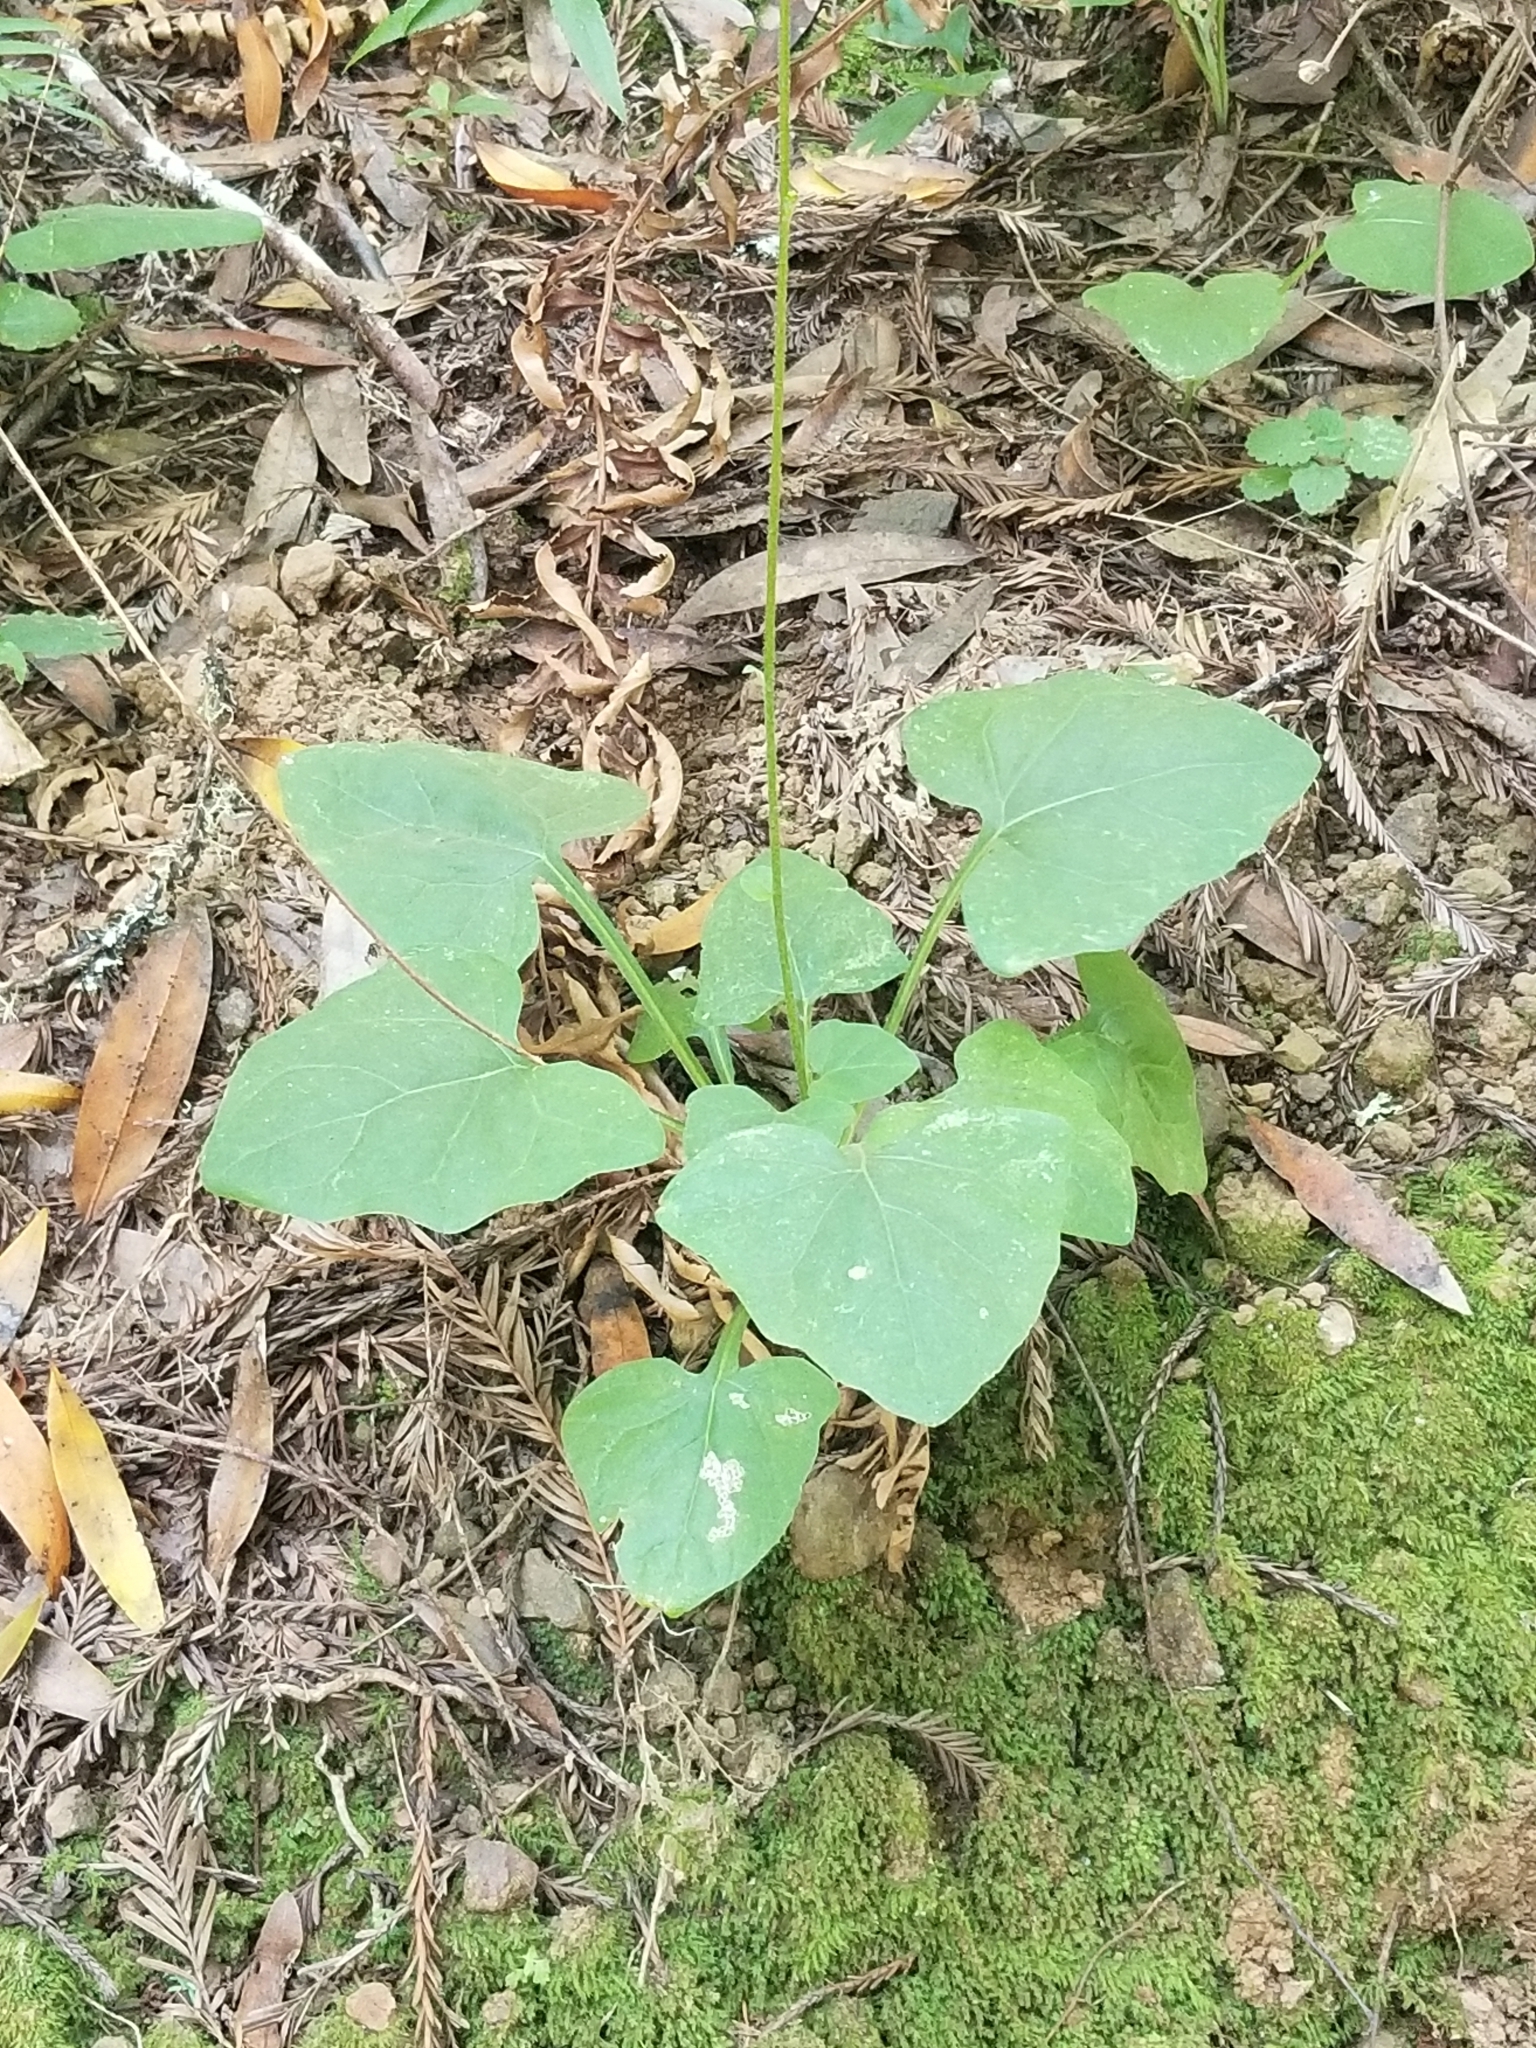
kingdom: Plantae
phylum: Tracheophyta
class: Magnoliopsida
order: Asterales
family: Asteraceae
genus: Adenocaulon
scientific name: Adenocaulon bicolor
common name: Trailplant
